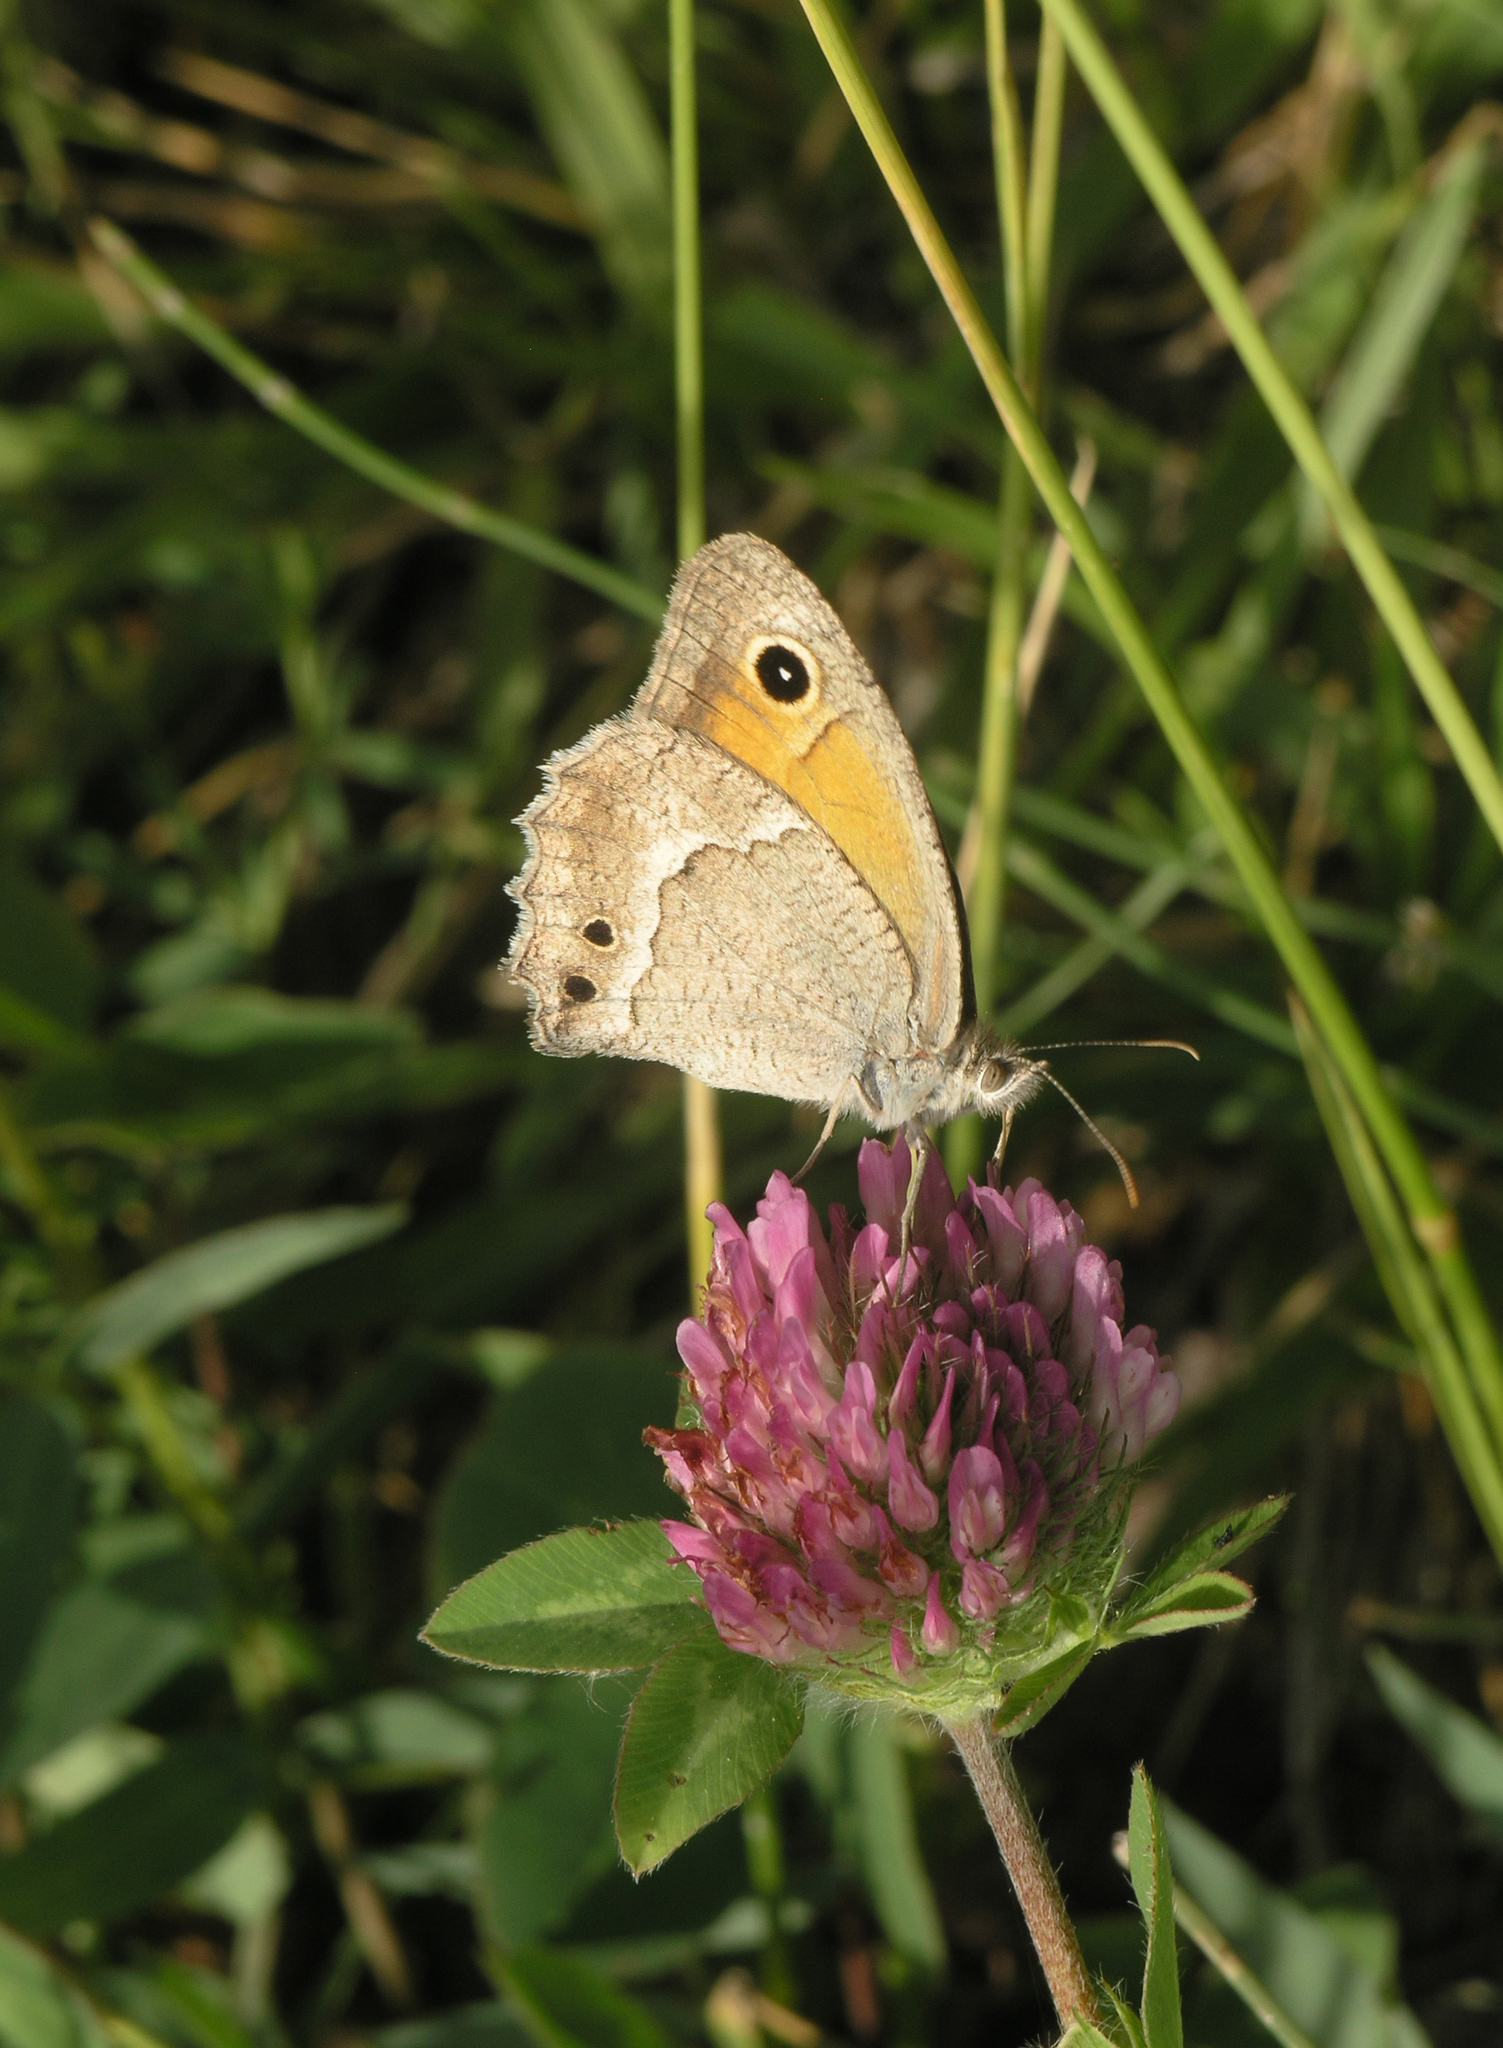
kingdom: Plantae
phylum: Tracheophyta
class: Magnoliopsida
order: Fabales
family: Fabaceae
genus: Trifolium
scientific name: Trifolium pratense
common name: Red clover
